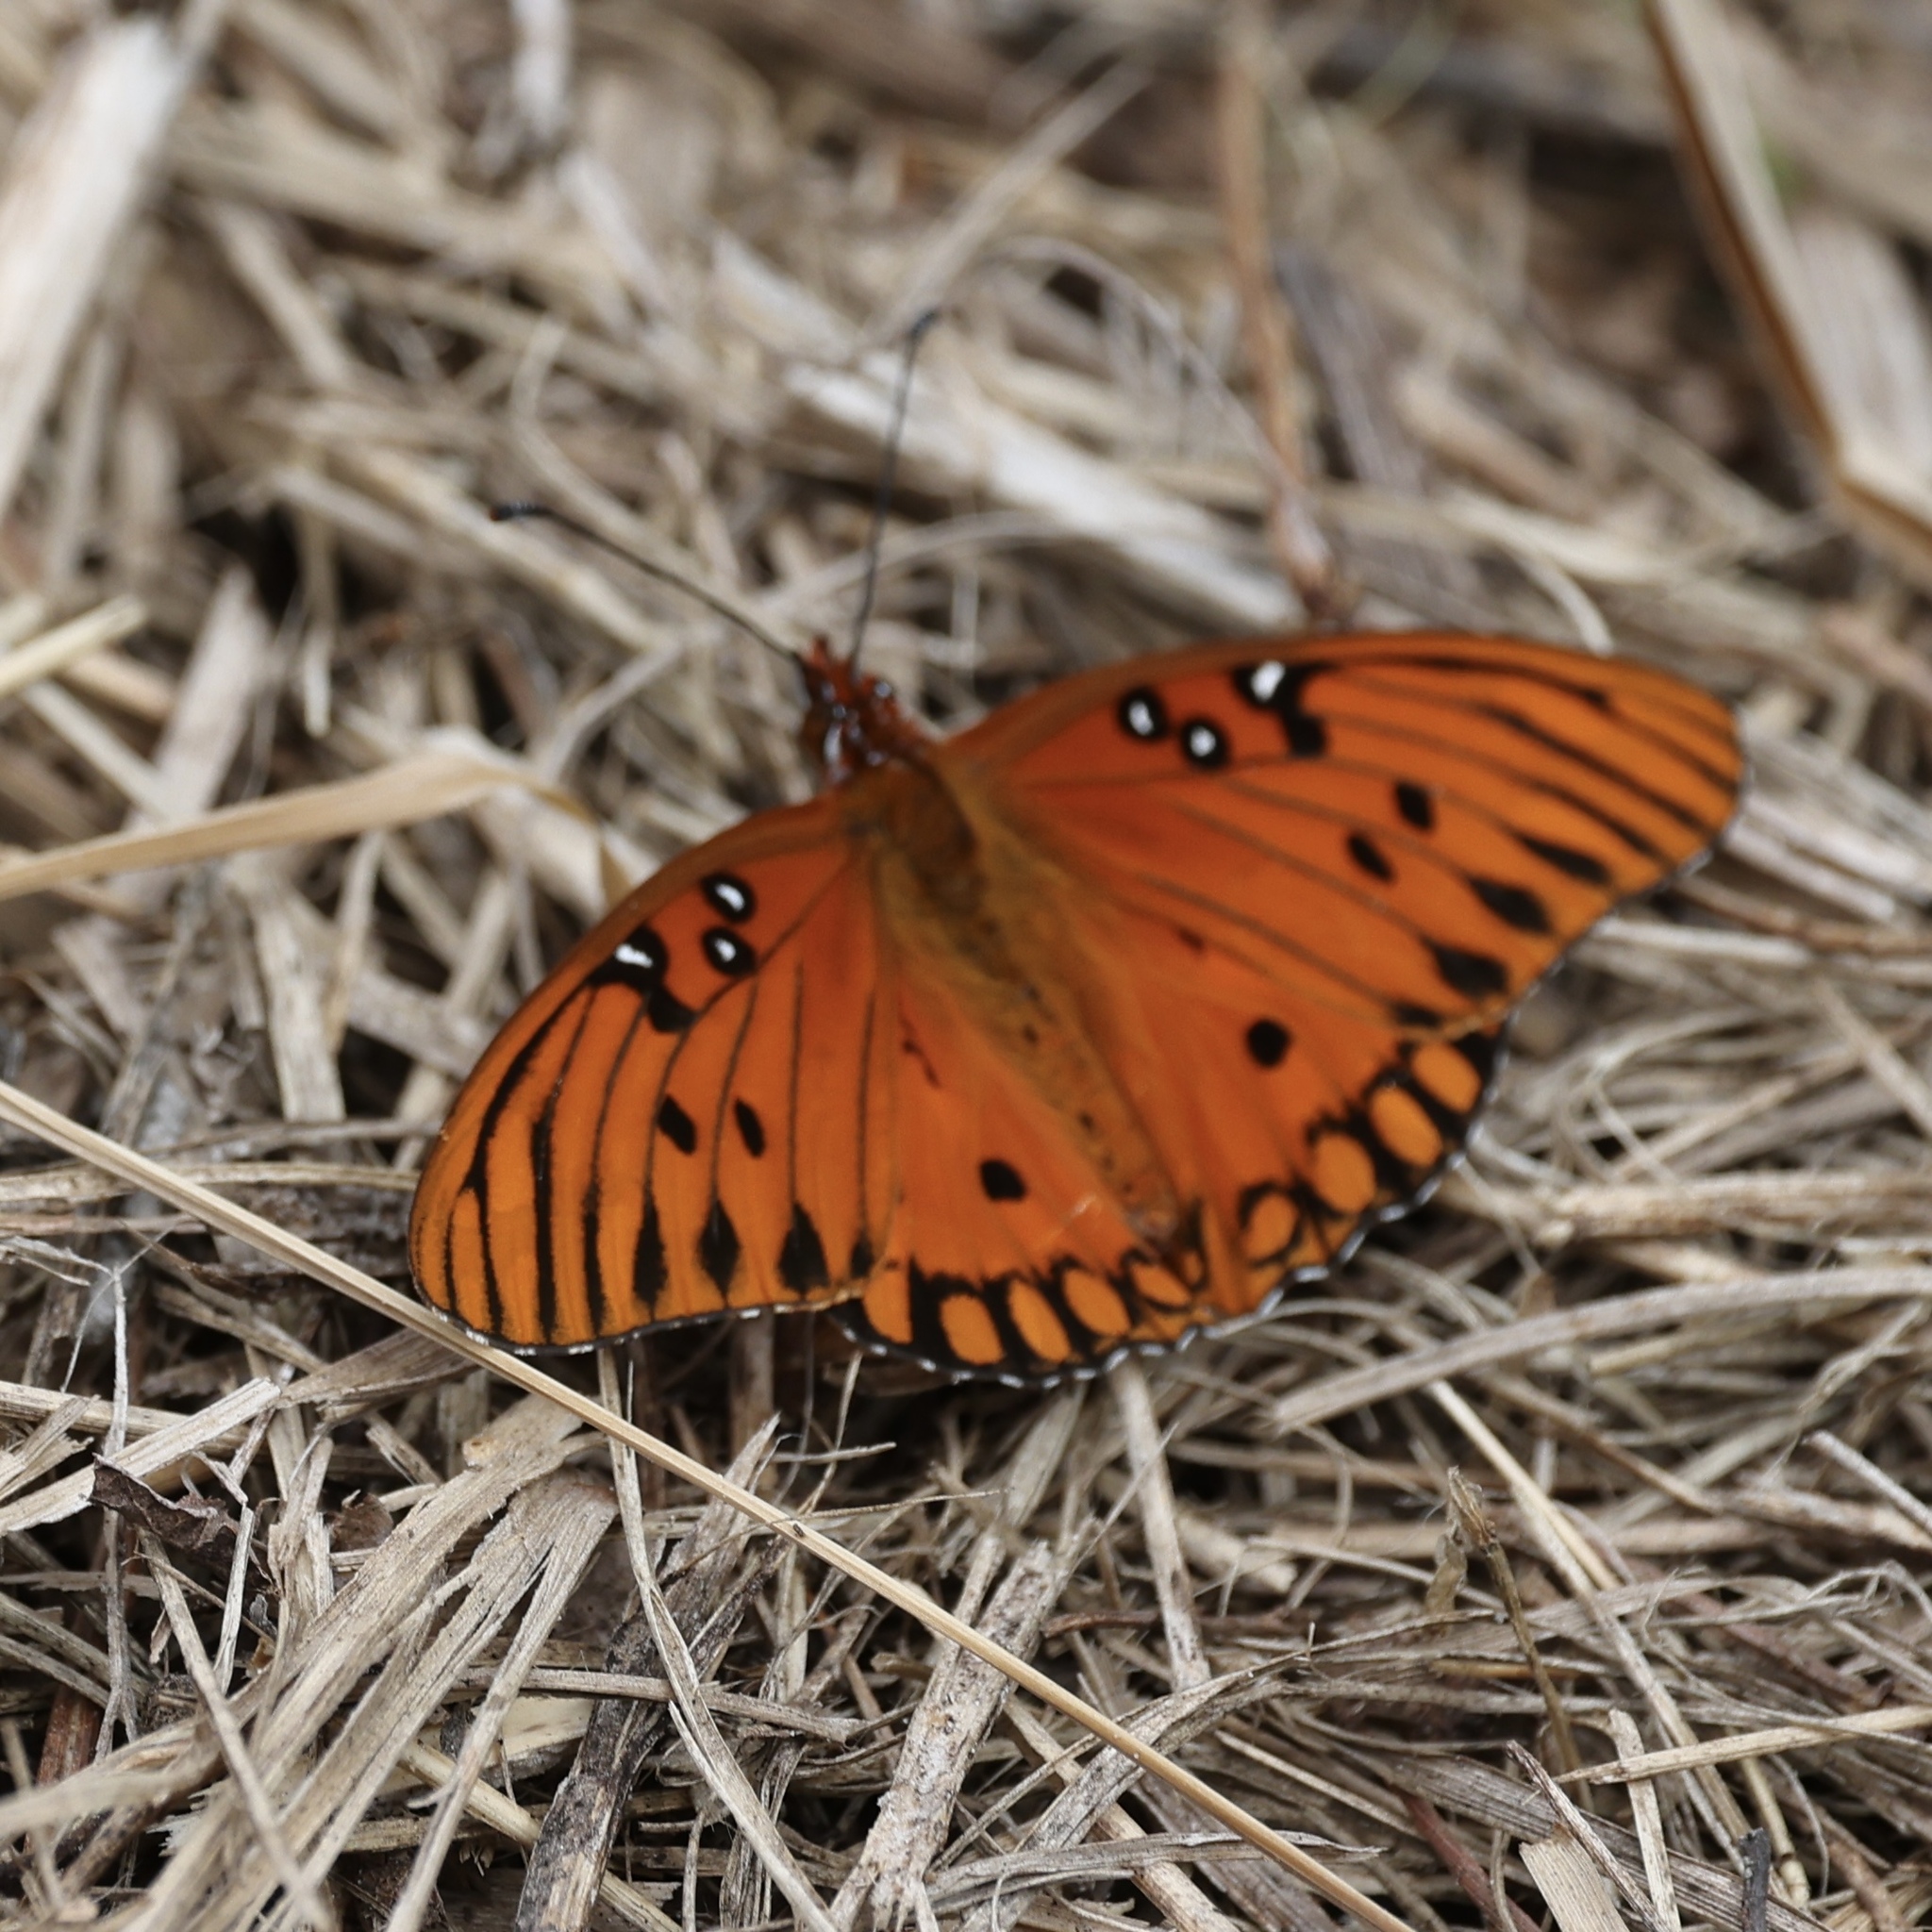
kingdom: Animalia
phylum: Arthropoda
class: Insecta
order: Lepidoptera
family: Nymphalidae
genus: Dione
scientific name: Dione vanillae
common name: Gulf fritillary
